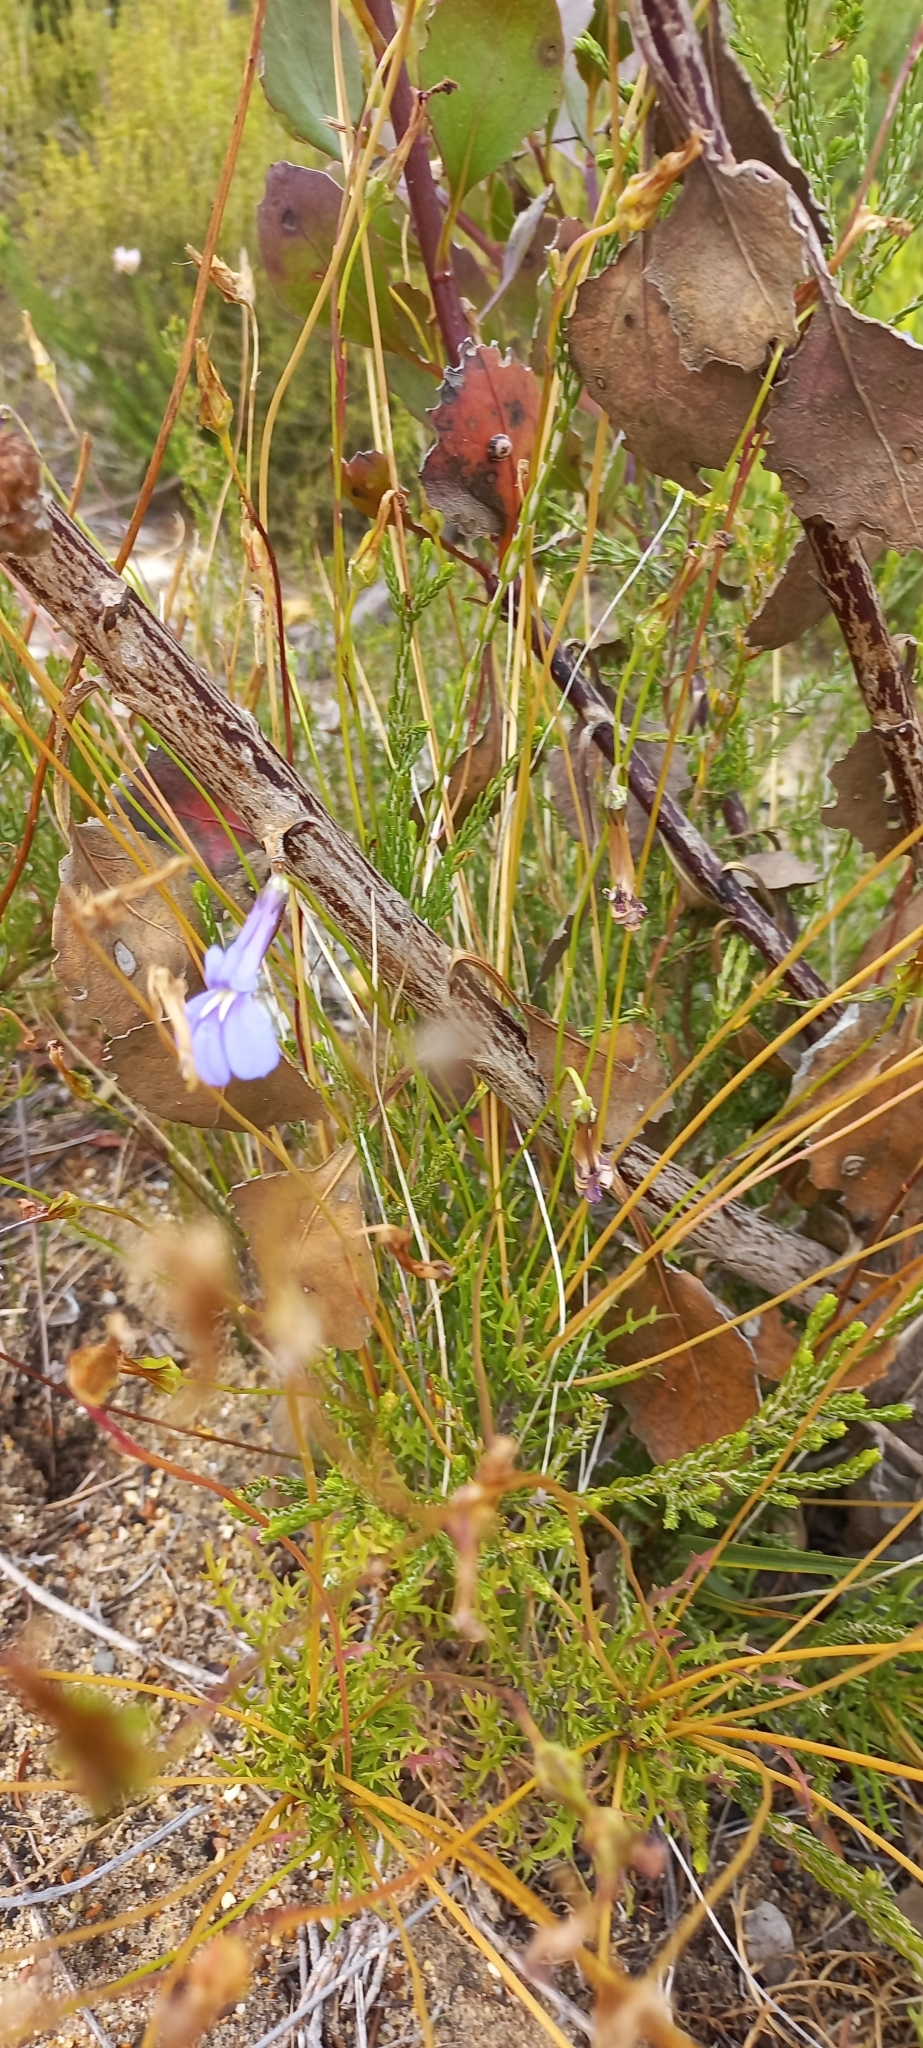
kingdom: Plantae
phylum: Tracheophyta
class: Magnoliopsida
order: Asterales
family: Campanulaceae
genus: Lobelia
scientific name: Lobelia coronopifolia
